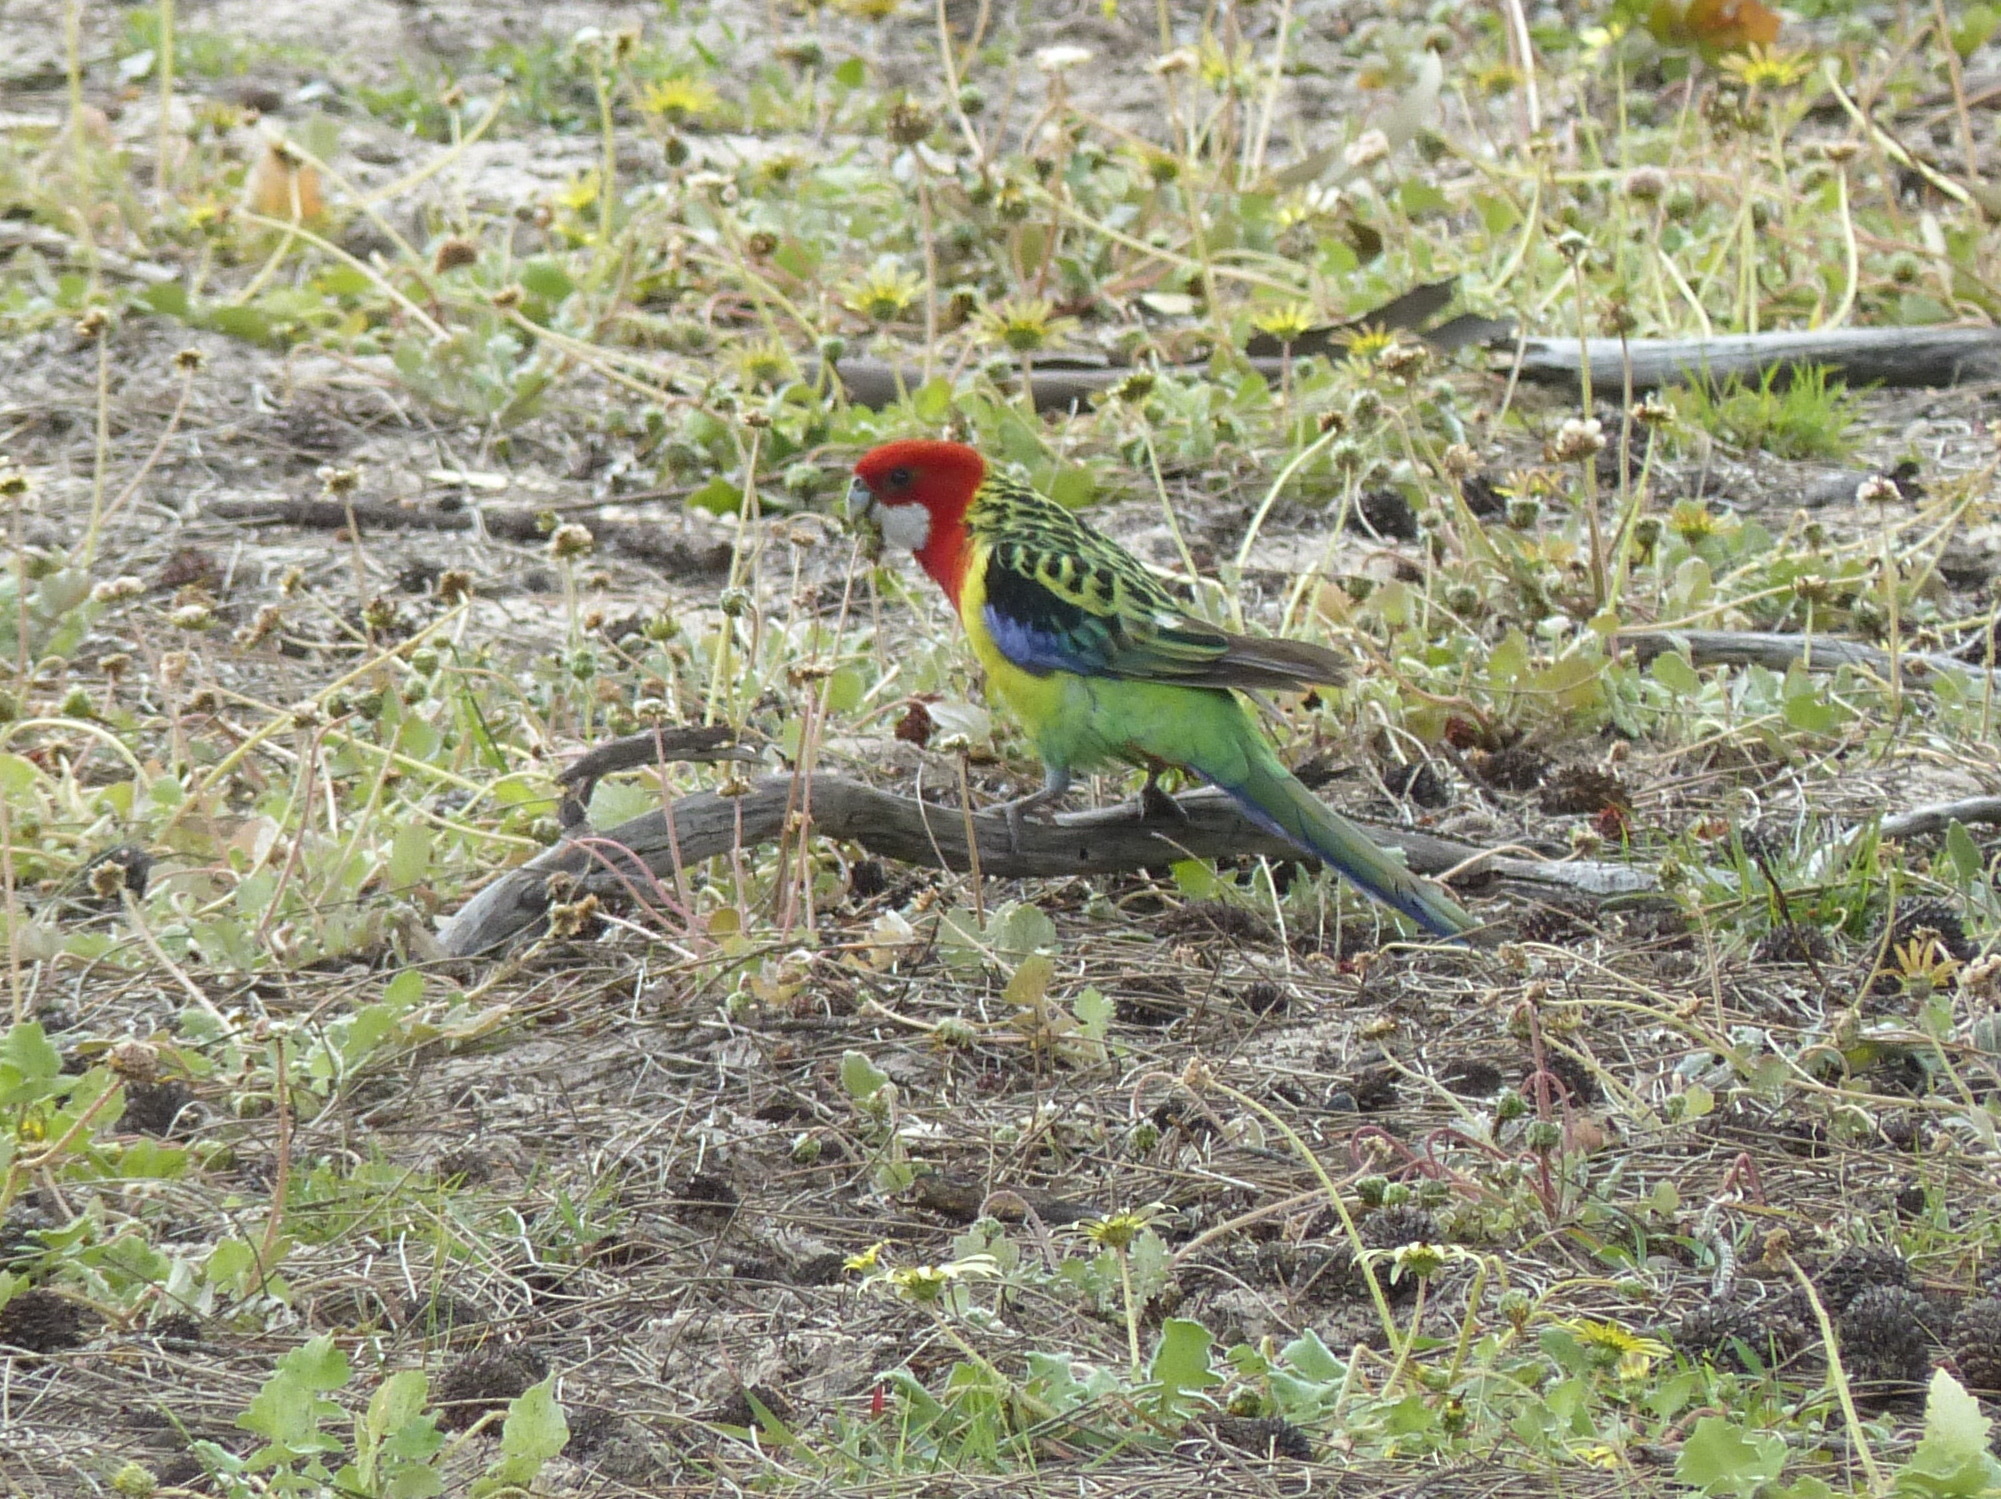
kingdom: Animalia
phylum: Chordata
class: Aves
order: Psittaciformes
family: Psittacidae
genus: Platycercus
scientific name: Platycercus eximius
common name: Eastern rosella
